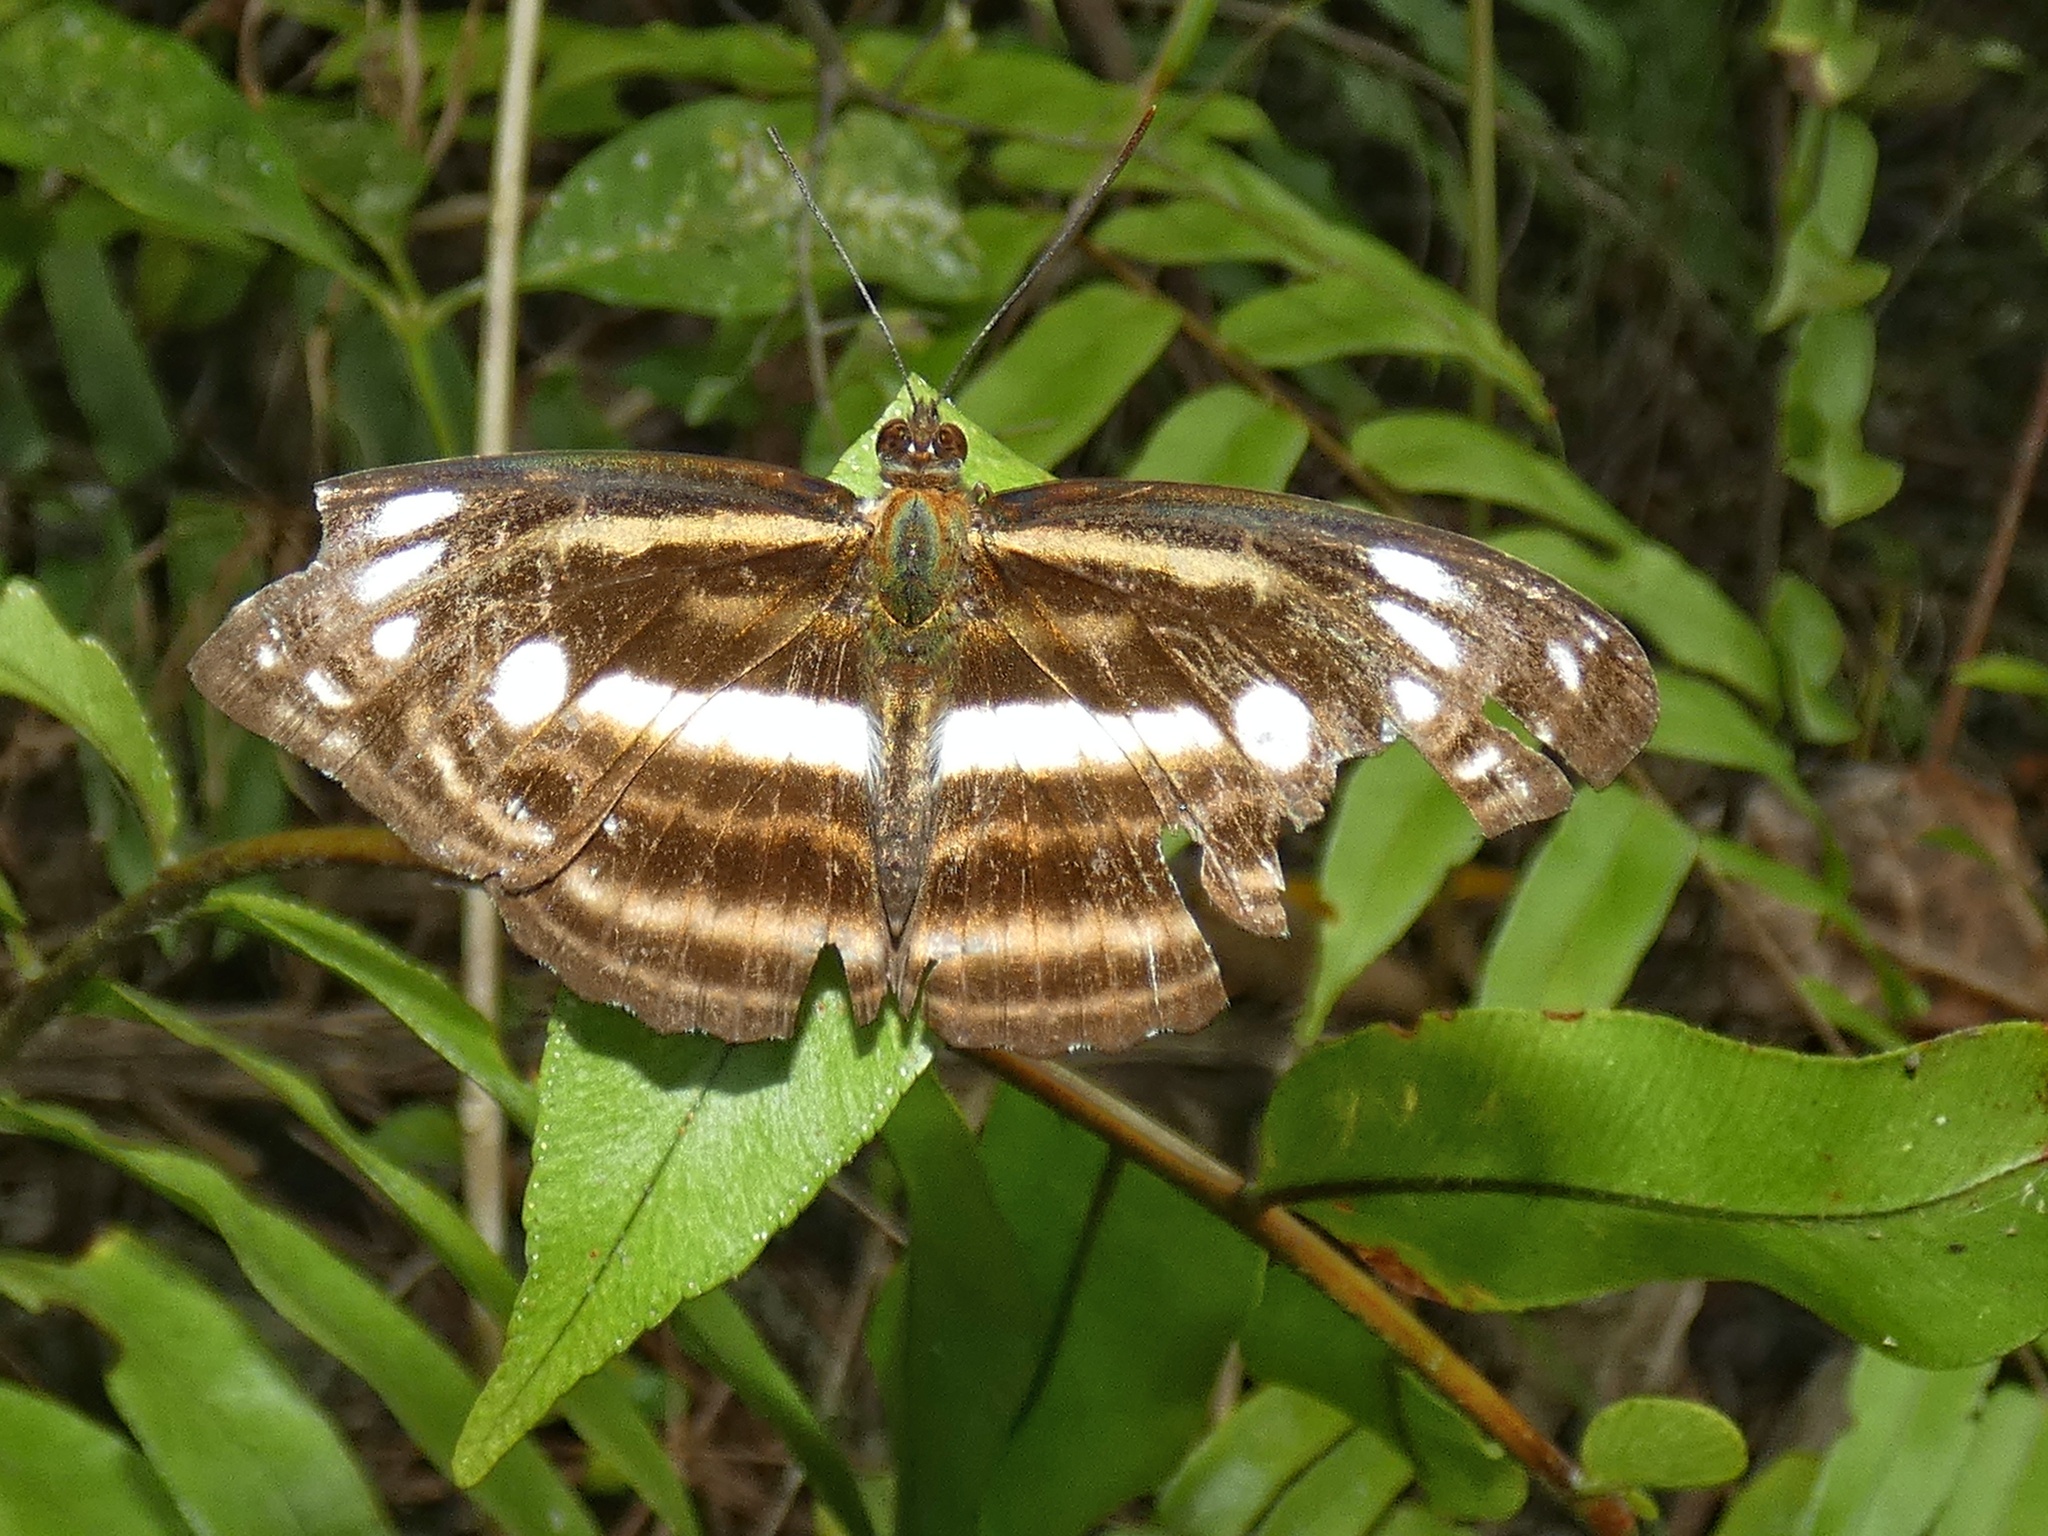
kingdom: Animalia
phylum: Arthropoda
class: Insecta
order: Lepidoptera
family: Nymphalidae
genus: Parathyma
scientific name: Parathyma gutama
